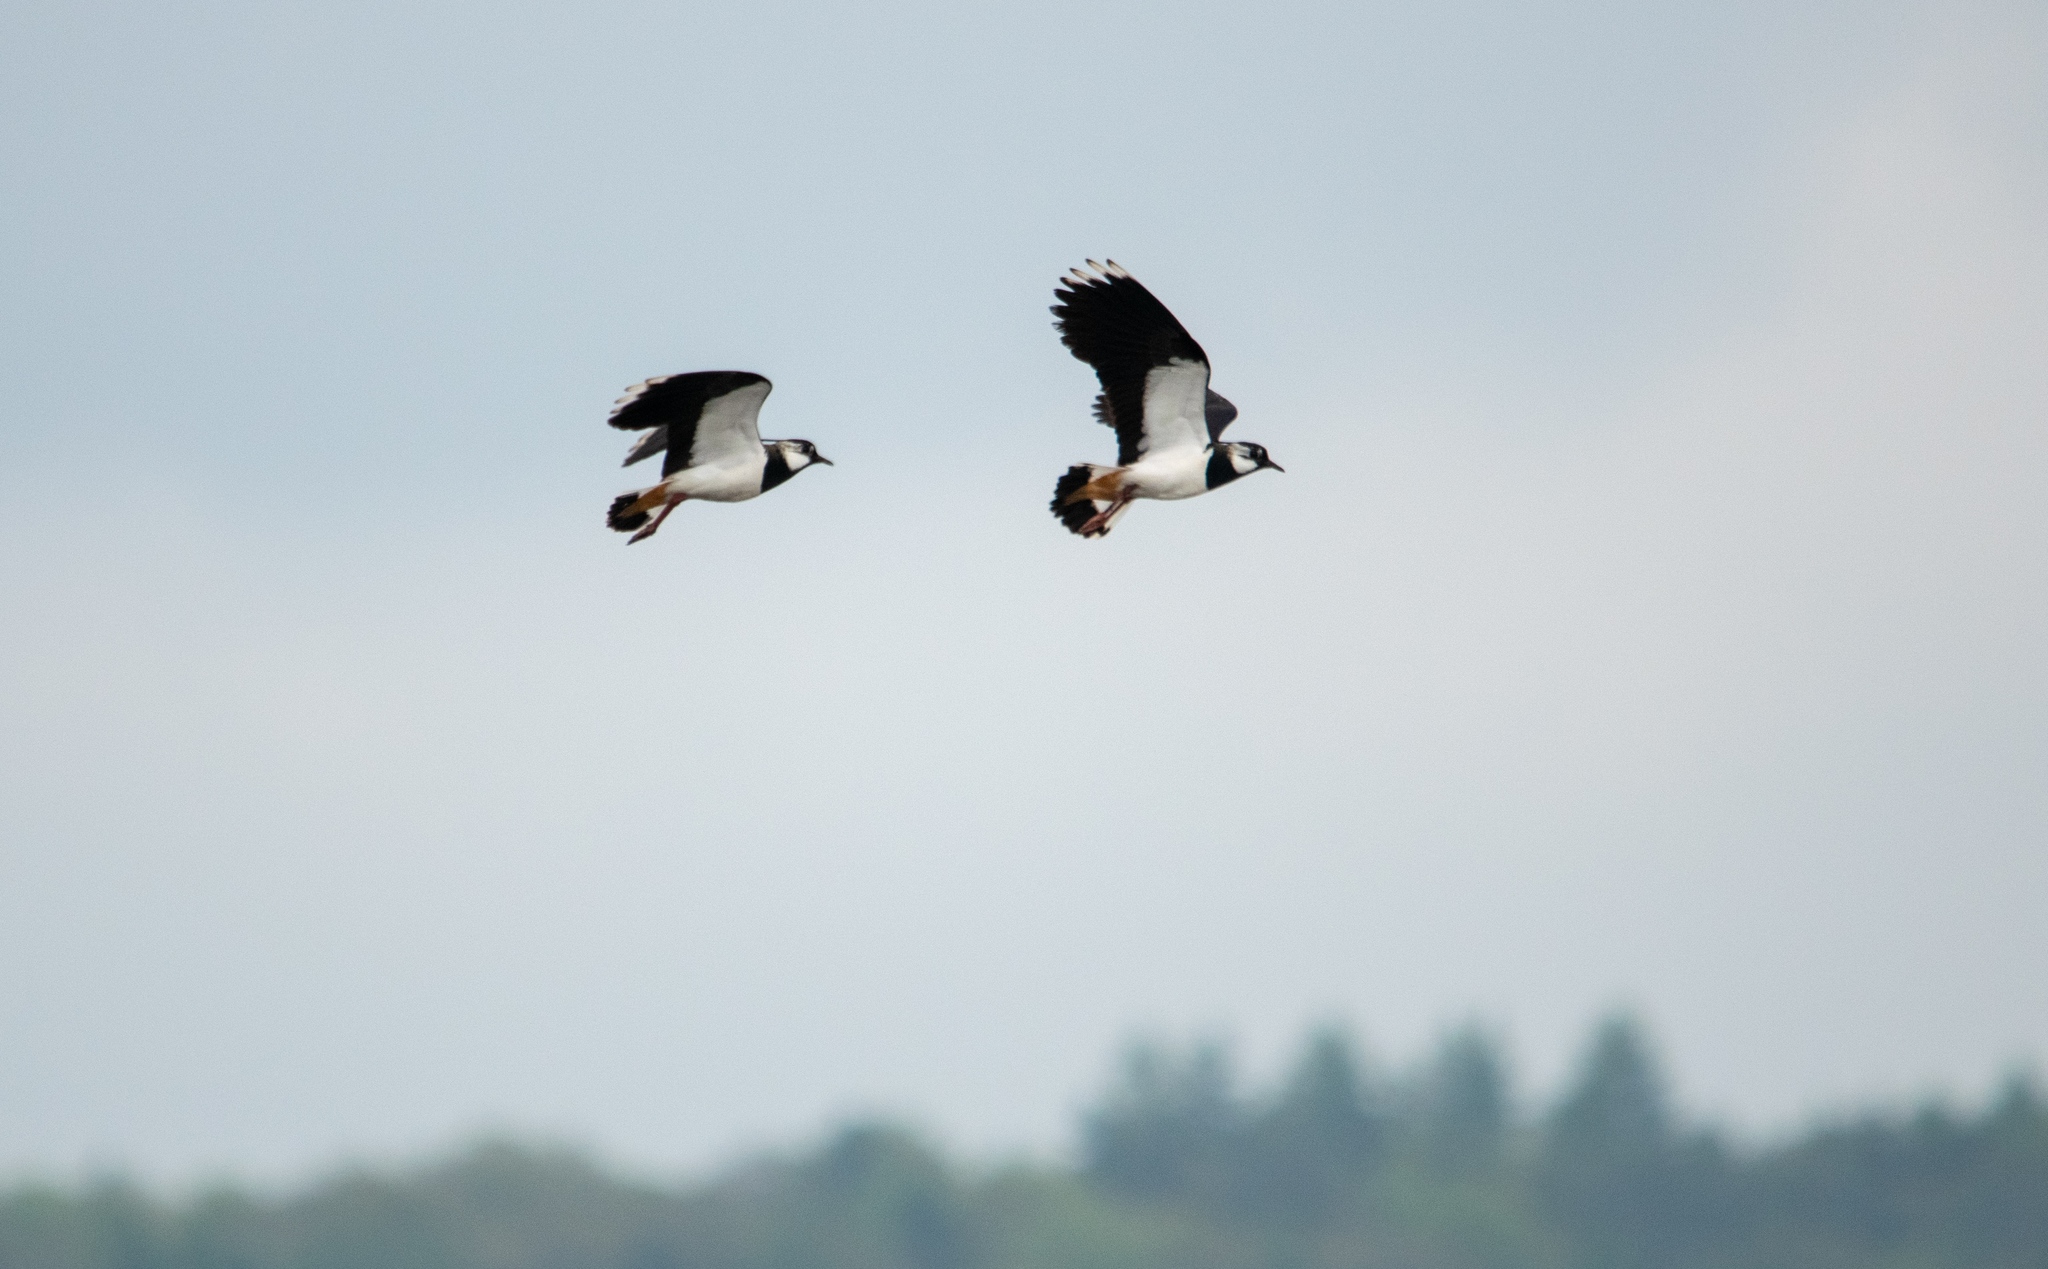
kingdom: Animalia
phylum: Chordata
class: Aves
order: Charadriiformes
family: Charadriidae
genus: Vanellus
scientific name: Vanellus vanellus
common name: Northern lapwing
